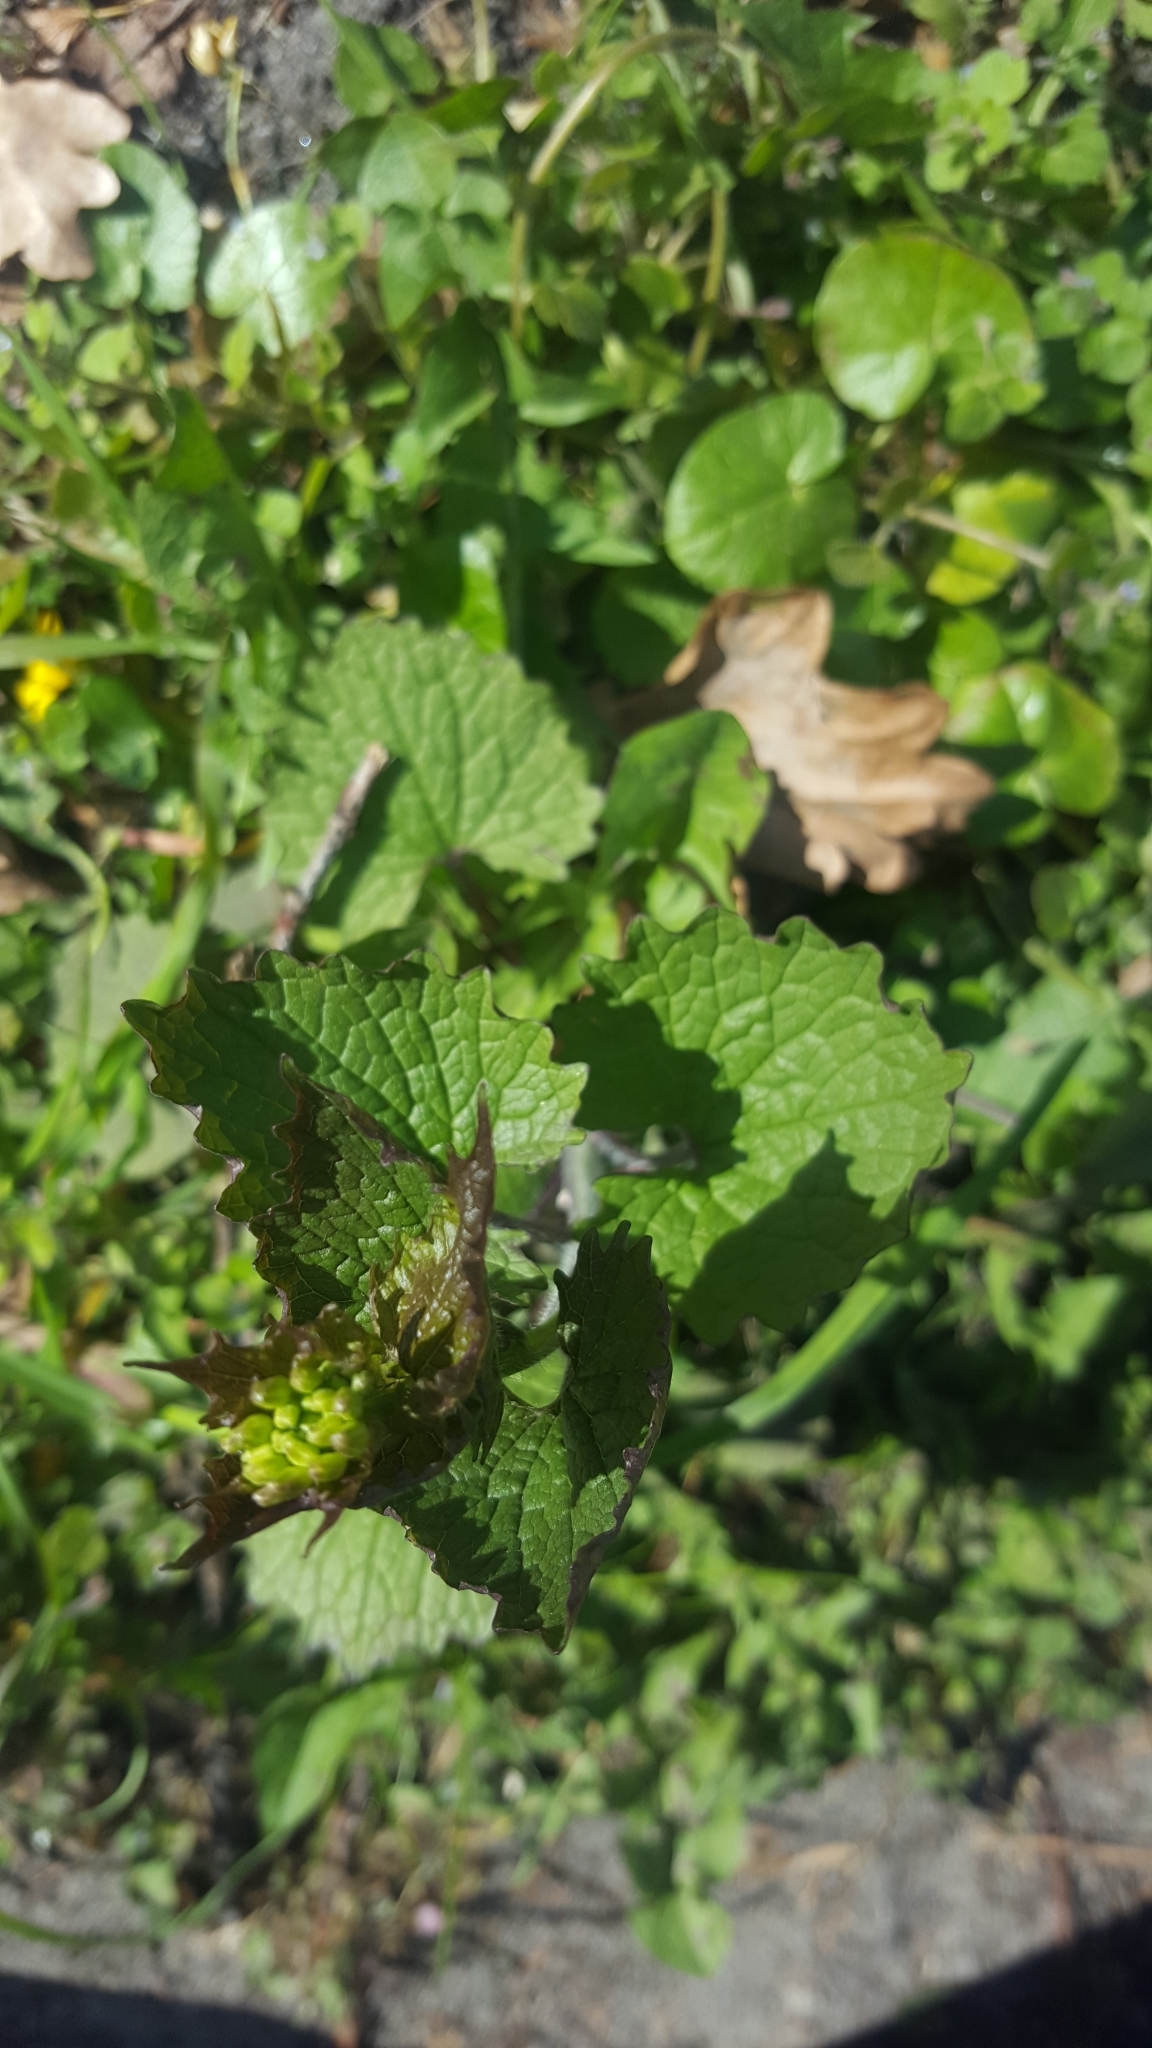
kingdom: Plantae
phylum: Tracheophyta
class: Magnoliopsida
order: Brassicales
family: Brassicaceae
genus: Alliaria
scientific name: Alliaria petiolata
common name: Garlic mustard
